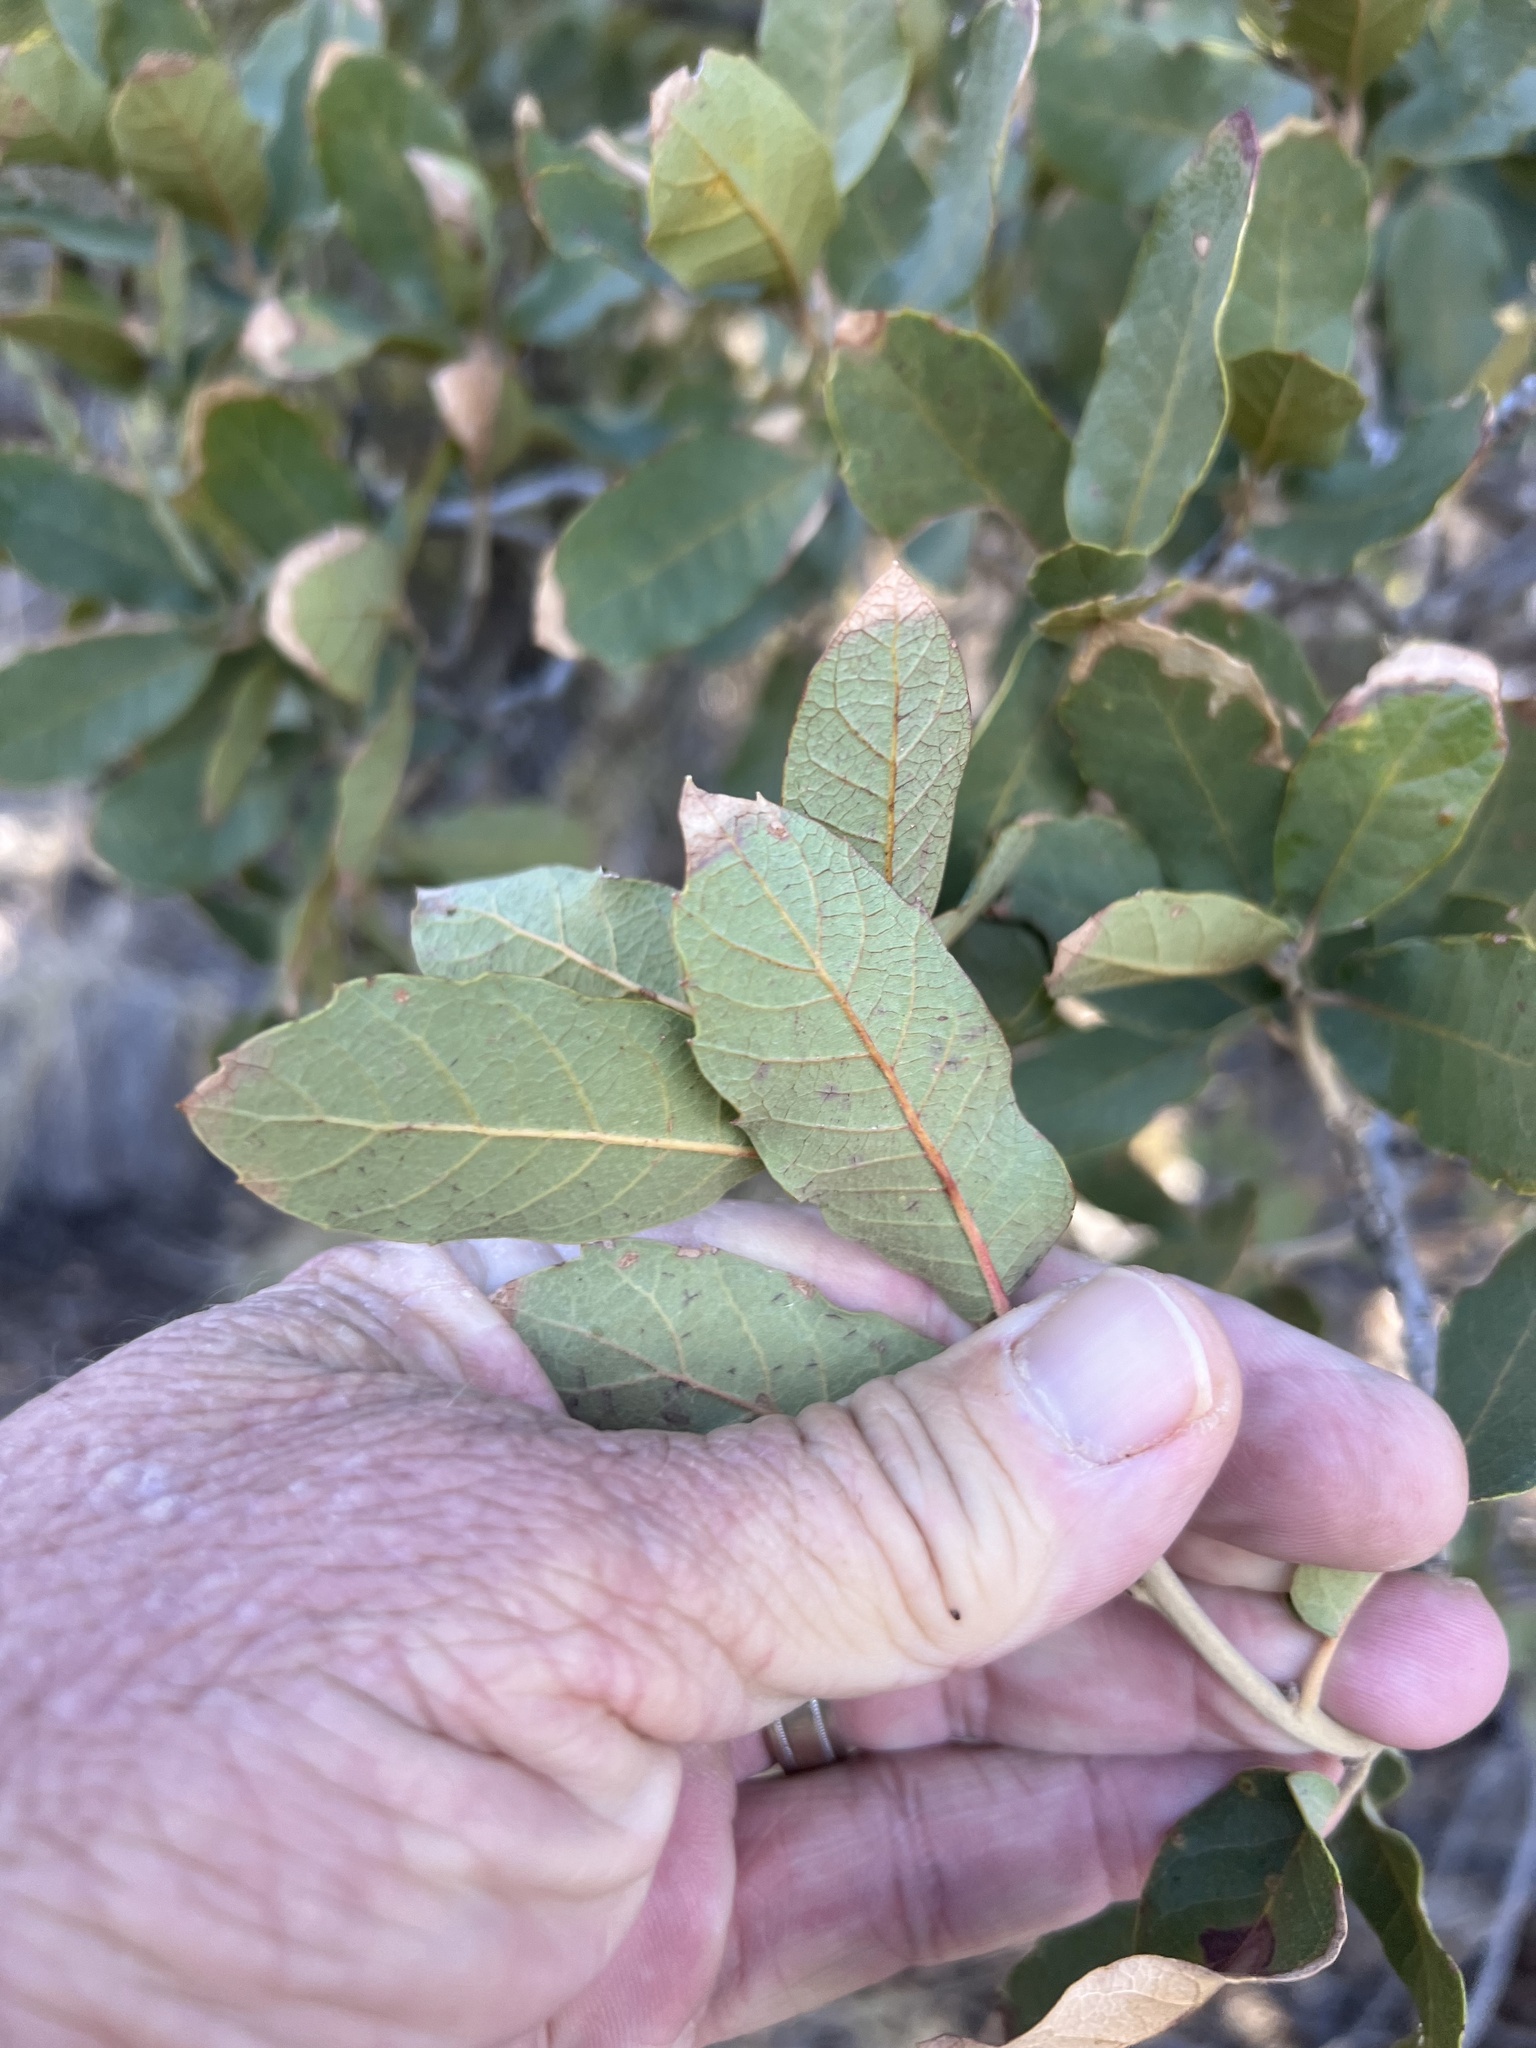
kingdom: Plantae
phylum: Tracheophyta
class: Magnoliopsida
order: Fagales
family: Fagaceae
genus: Quercus
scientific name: Quercus arizonica
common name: Arizona white oak
